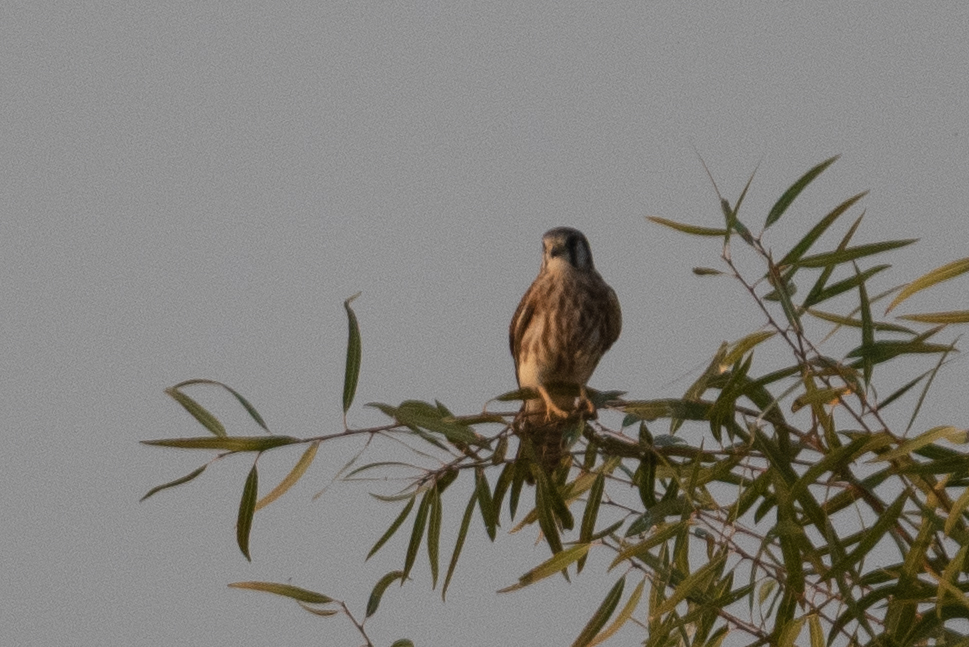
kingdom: Animalia
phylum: Chordata
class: Aves
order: Falconiformes
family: Falconidae
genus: Falco
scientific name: Falco sparverius
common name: American kestrel
